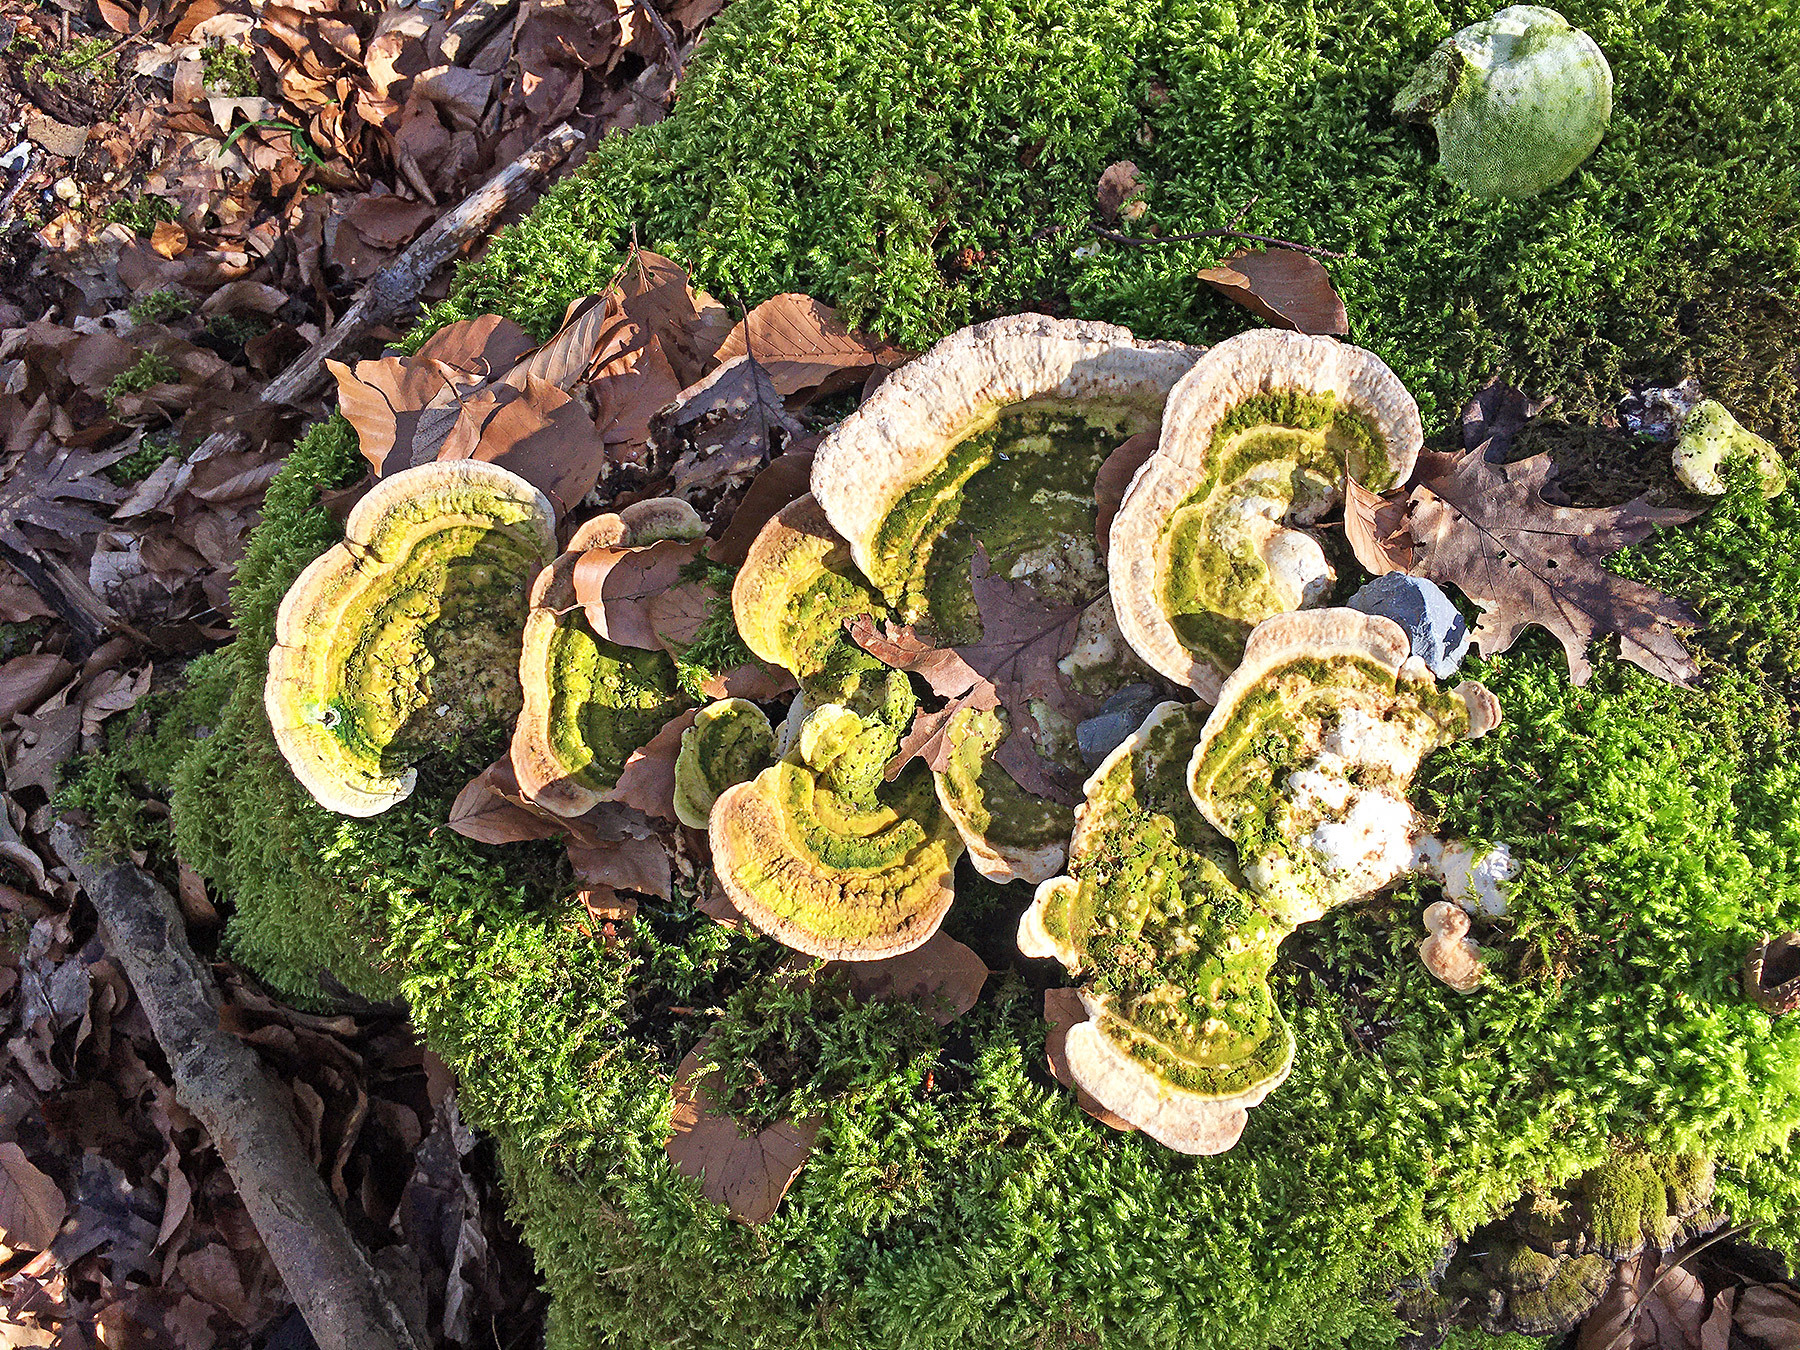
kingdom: Fungi
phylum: Basidiomycota
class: Agaricomycetes
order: Polyporales
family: Polyporaceae
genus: Trametes
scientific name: Trametes gibbosa
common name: Lumpy bracket
